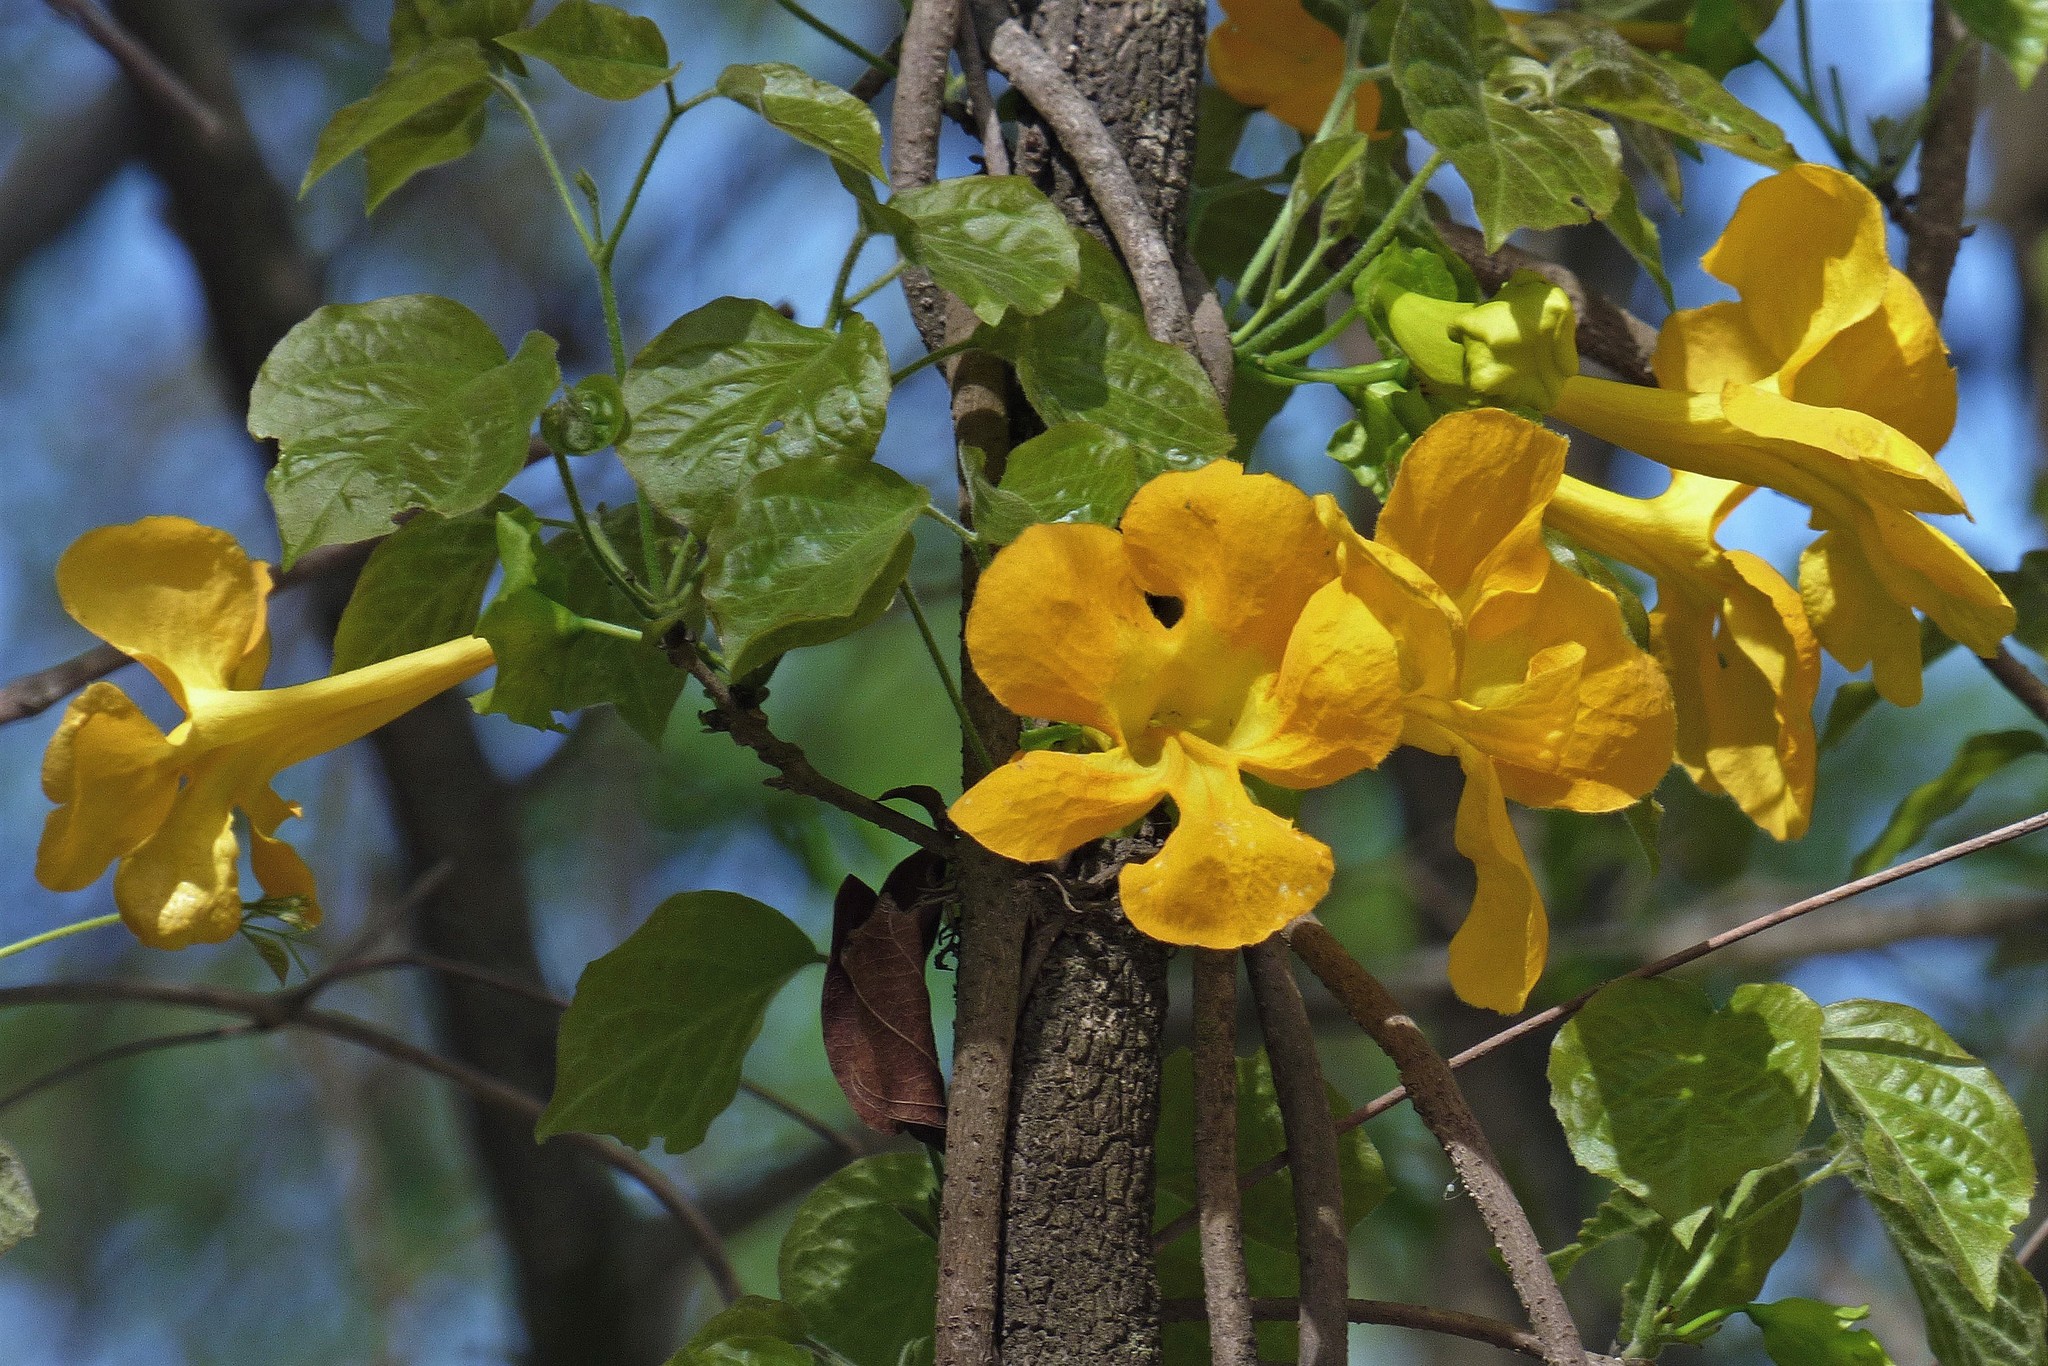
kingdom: Plantae
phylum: Tracheophyta
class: Magnoliopsida
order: Lamiales
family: Bignoniaceae
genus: Dolichandra
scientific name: Dolichandra unguis-cati
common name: Catclaw vine
